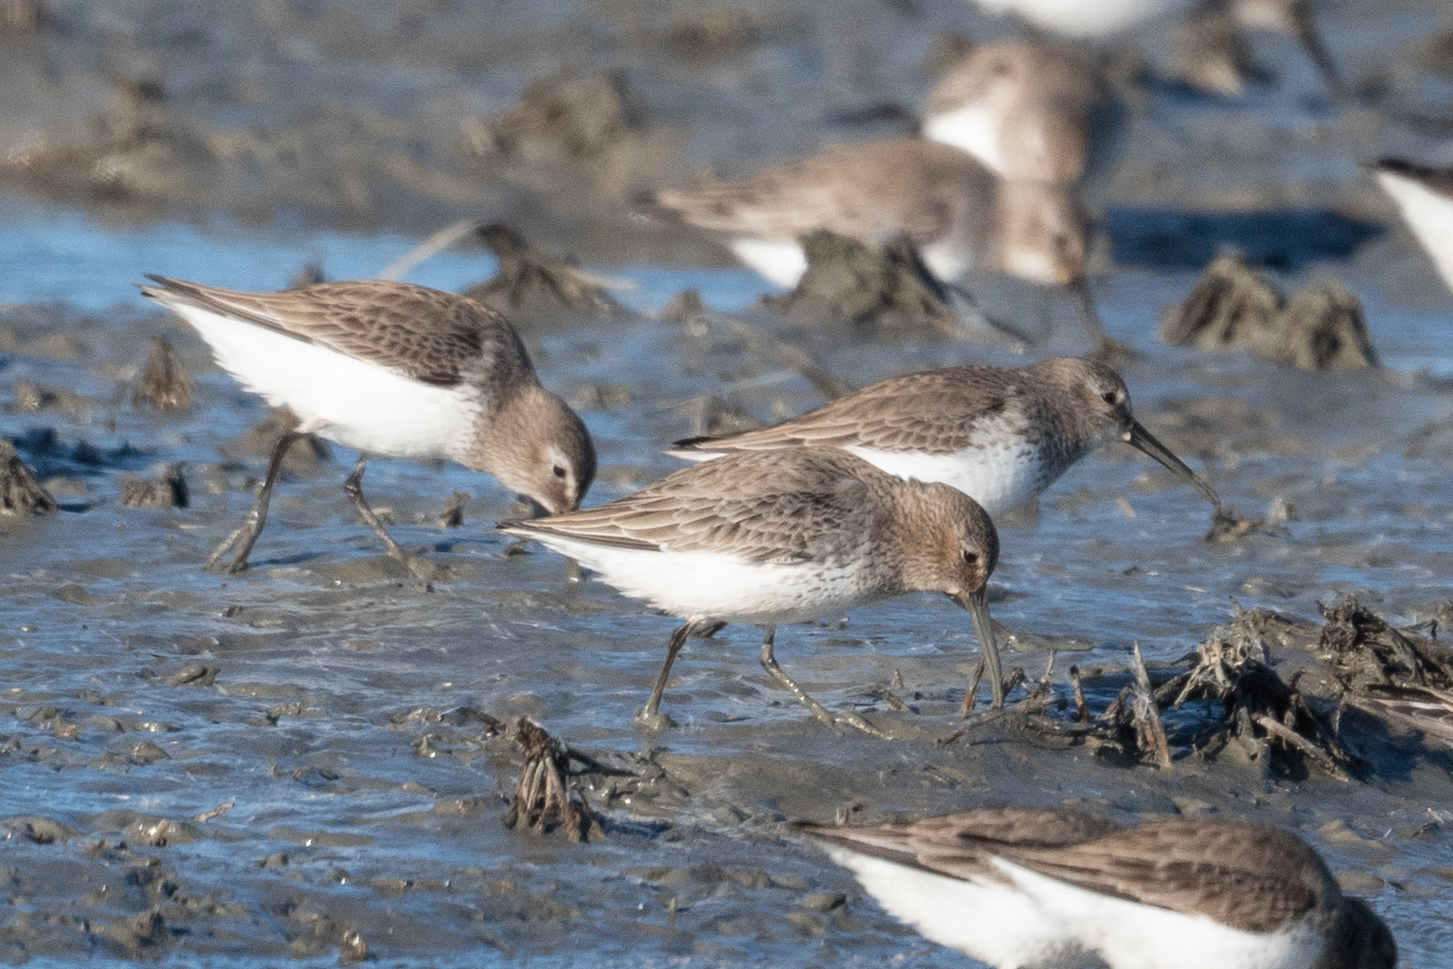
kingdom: Animalia
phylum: Chordata
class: Aves
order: Charadriiformes
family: Scolopacidae
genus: Calidris
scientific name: Calidris alpina
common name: Dunlin
